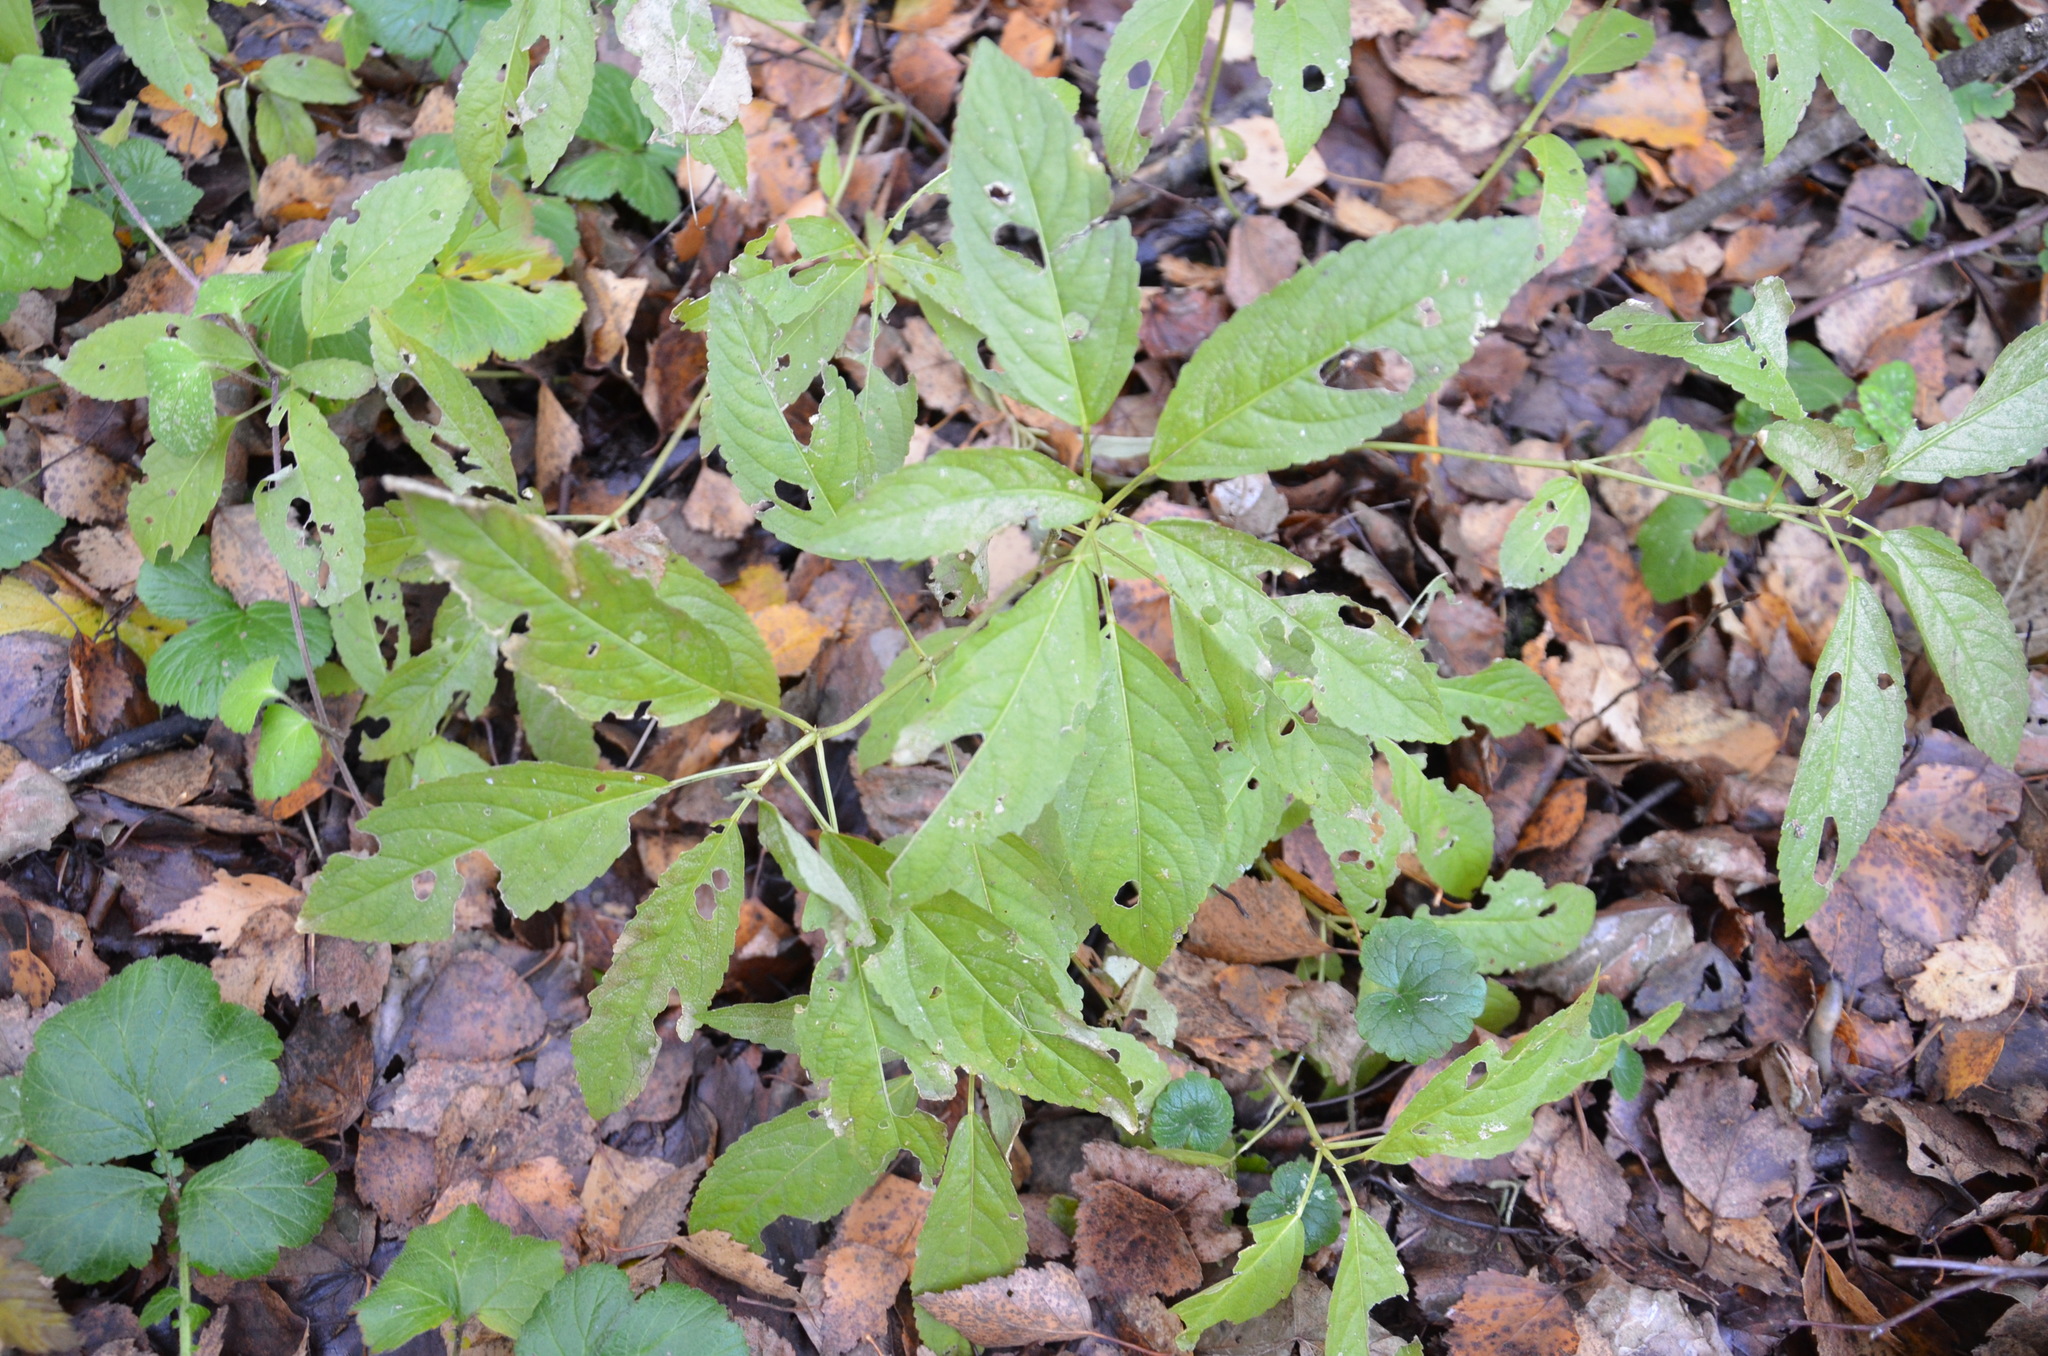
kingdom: Plantae
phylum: Tracheophyta
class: Magnoliopsida
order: Malpighiales
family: Euphorbiaceae
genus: Mercurialis
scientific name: Mercurialis perennis
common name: Dog mercury
